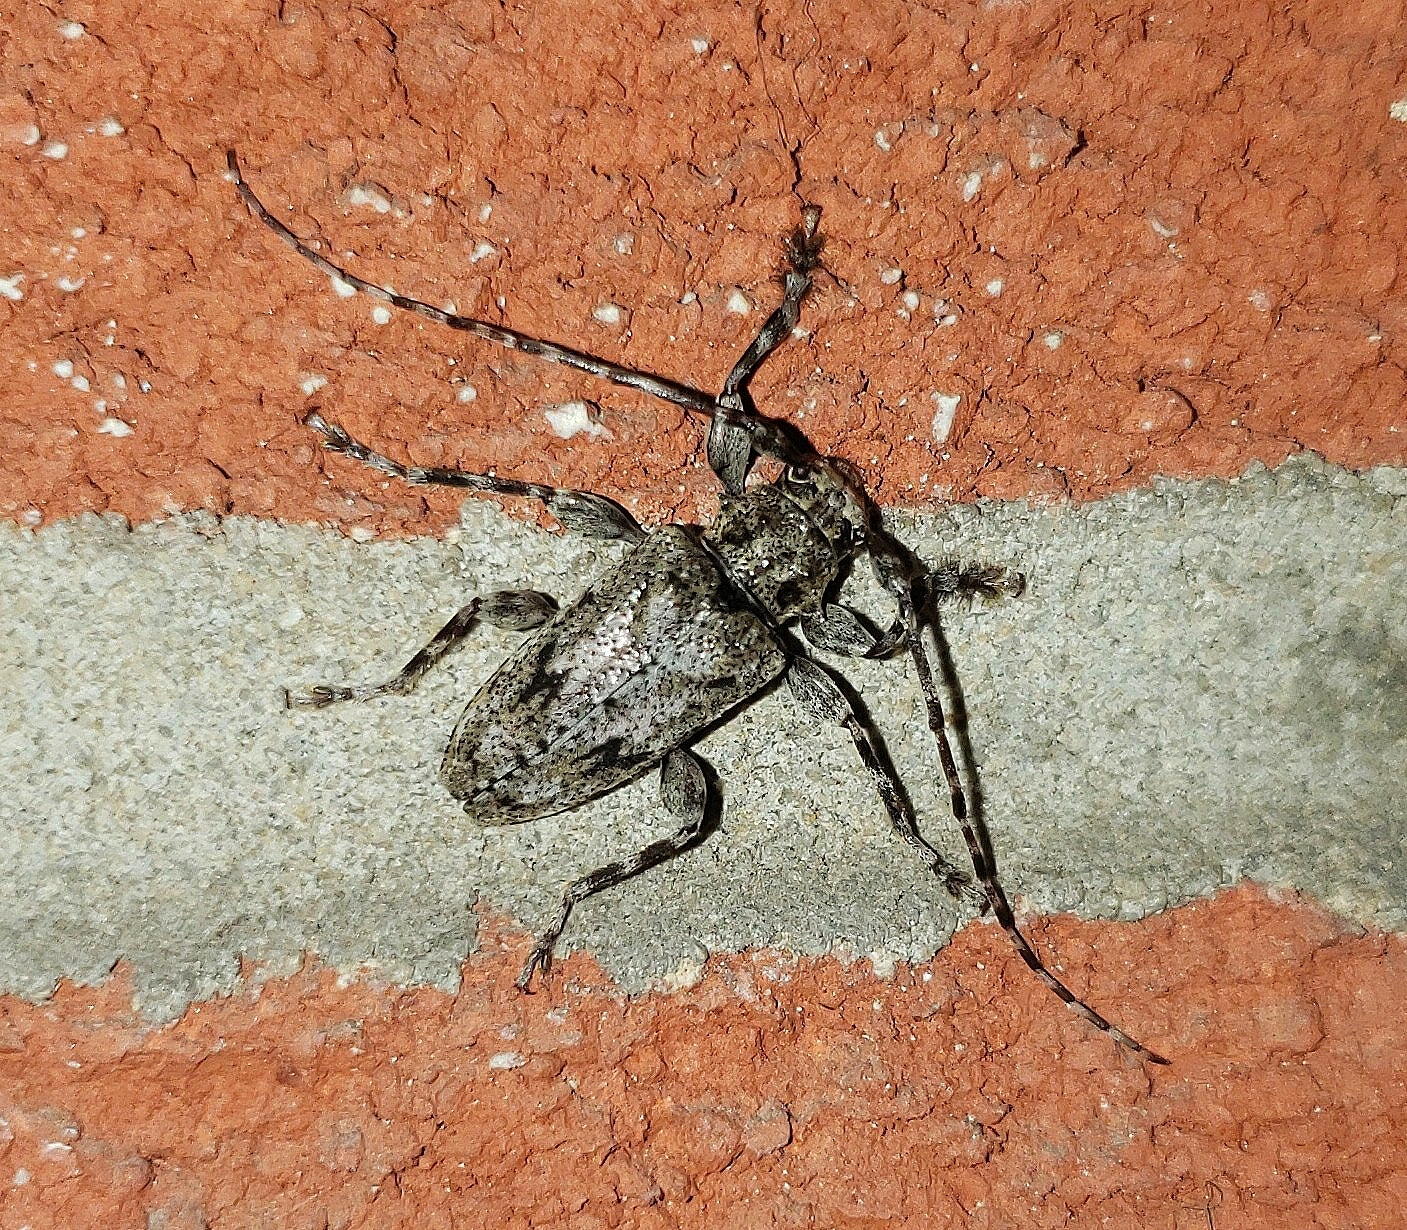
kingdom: Animalia
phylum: Arthropoda
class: Insecta
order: Coleoptera
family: Cerambycidae
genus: Aegomorphus
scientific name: Aegomorphus modestus
